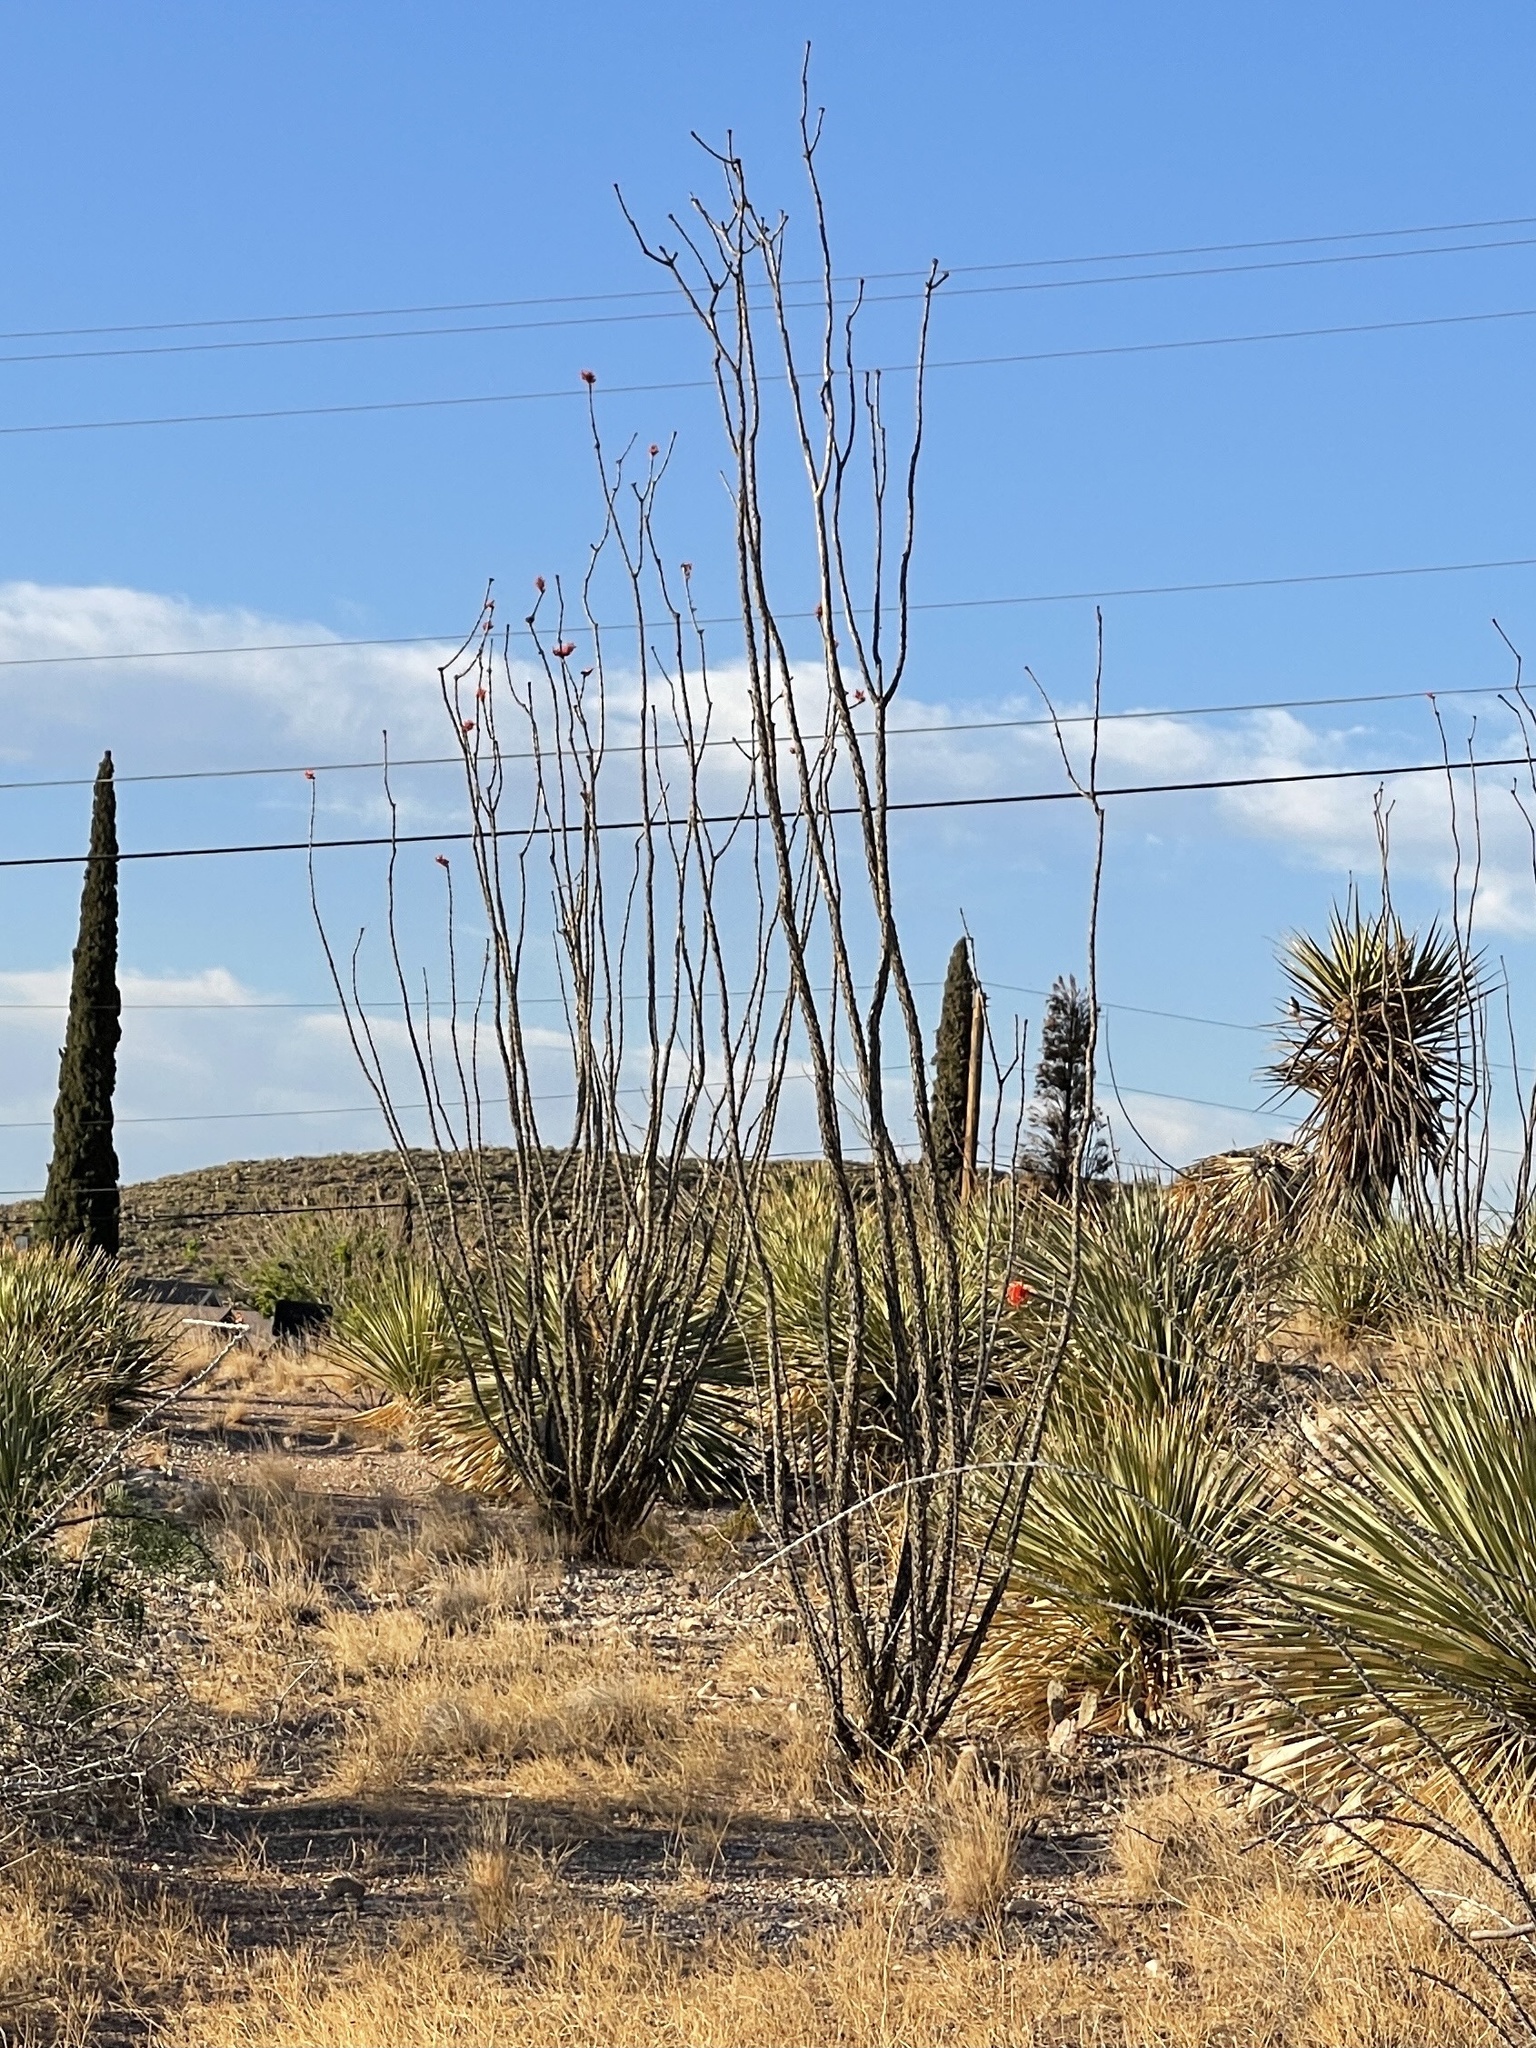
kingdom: Plantae
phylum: Tracheophyta
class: Magnoliopsida
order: Ericales
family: Fouquieriaceae
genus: Fouquieria
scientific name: Fouquieria splendens
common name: Vine-cactus
